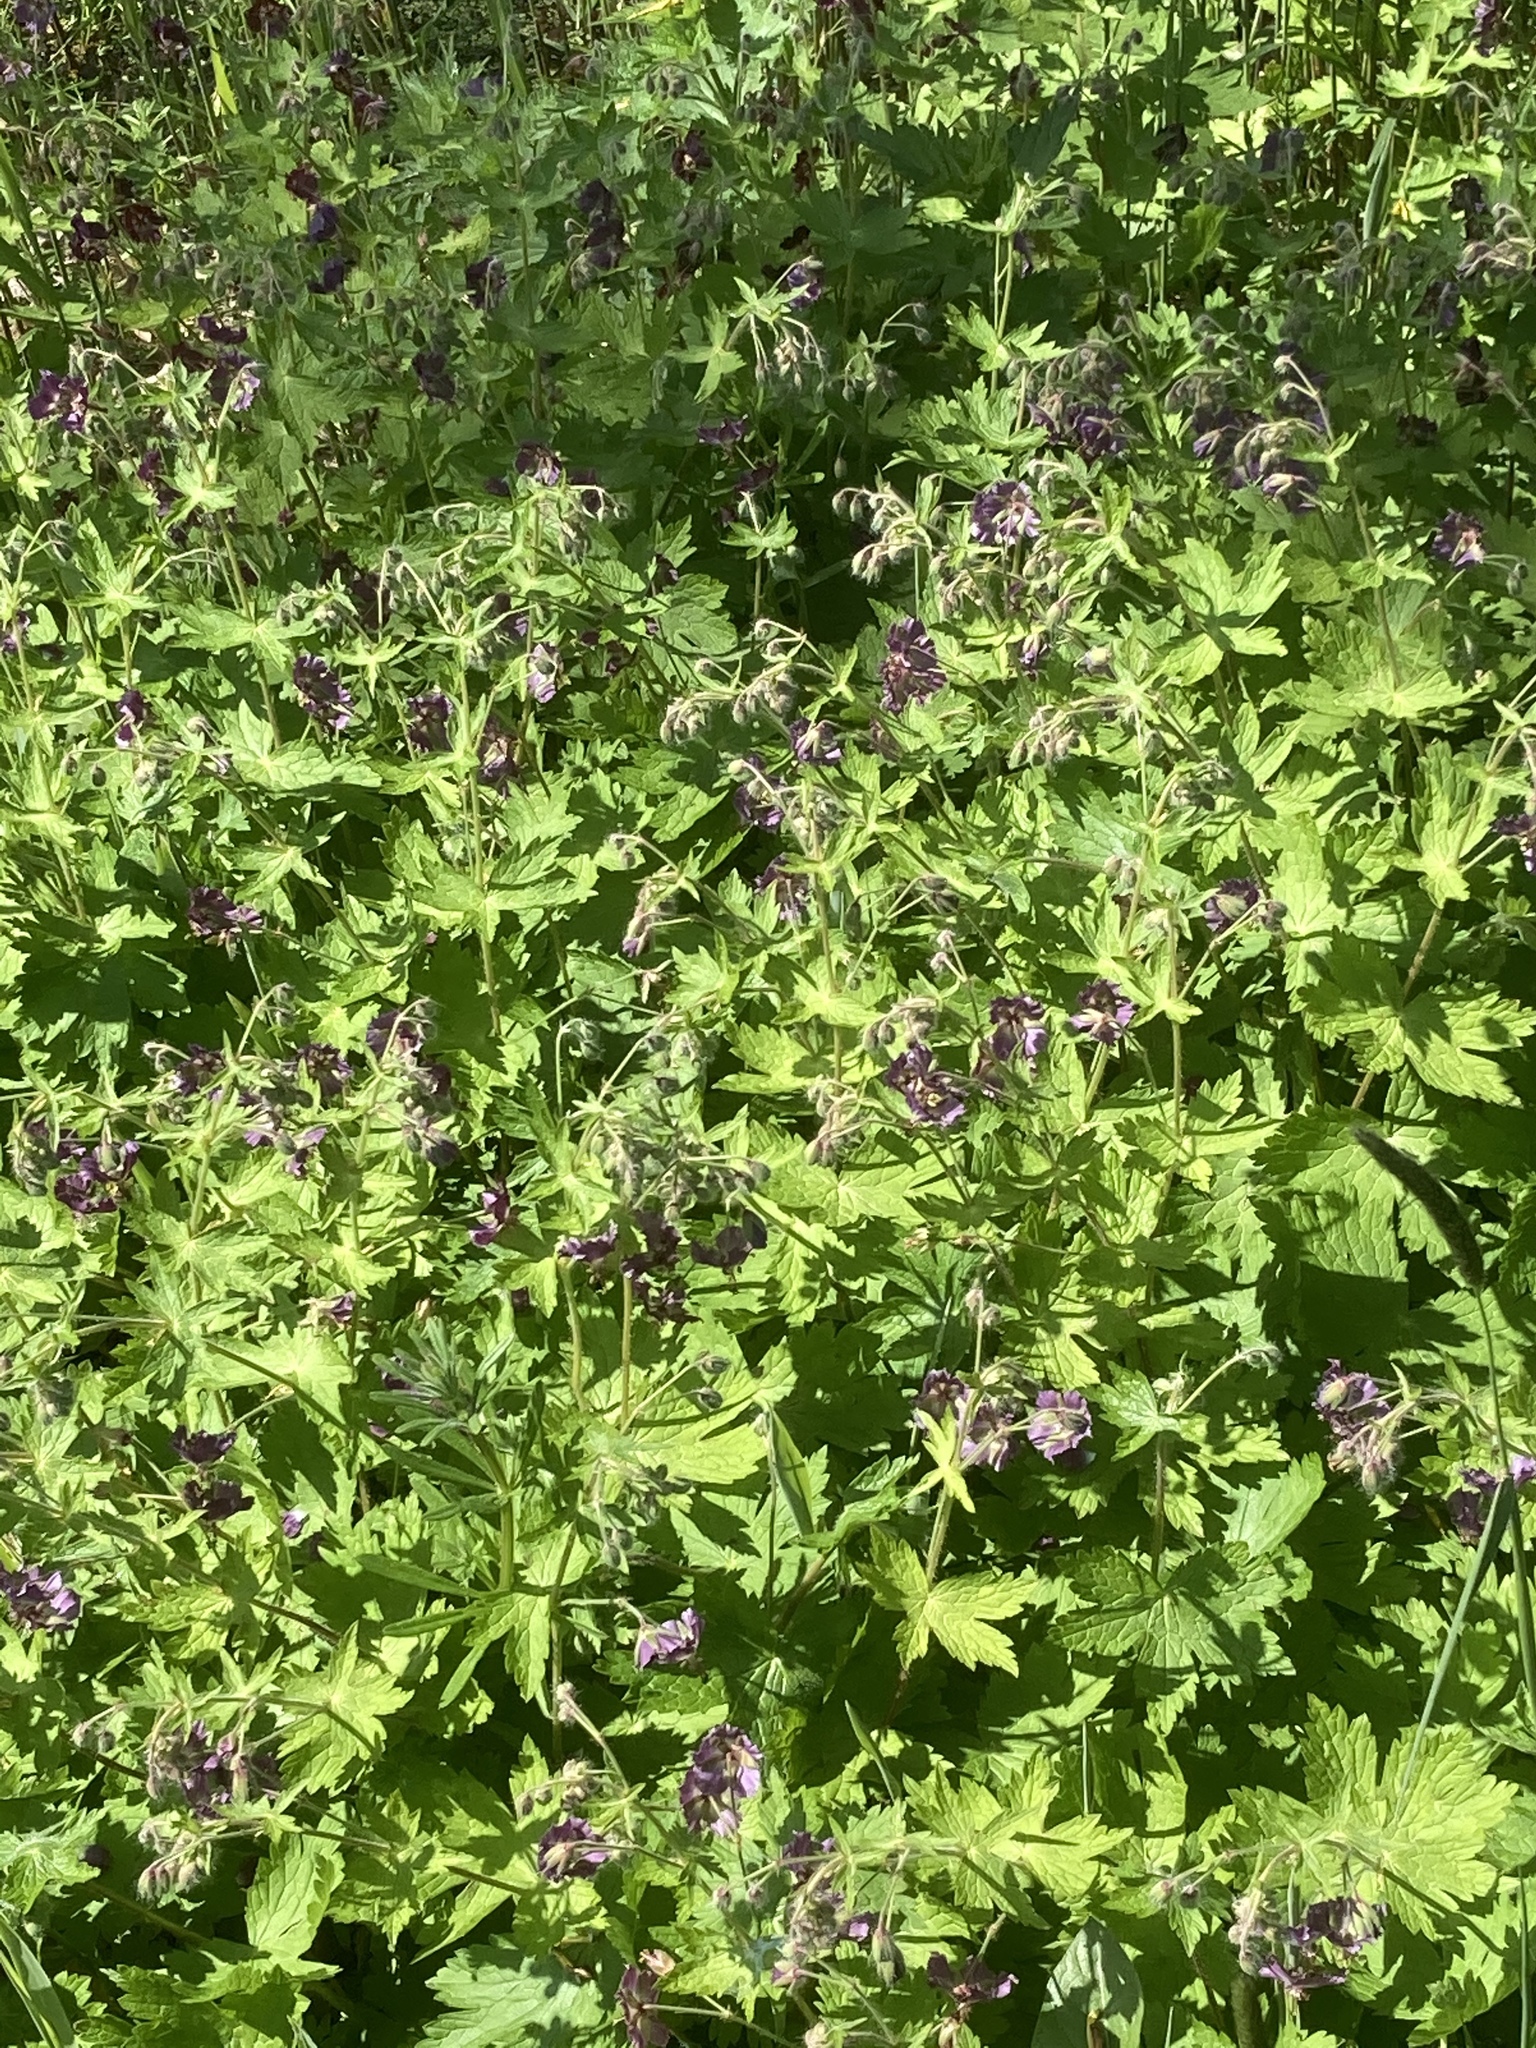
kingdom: Plantae
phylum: Tracheophyta
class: Magnoliopsida
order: Geraniales
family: Geraniaceae
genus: Geranium
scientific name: Geranium phaeum
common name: Dusky crane's-bill
